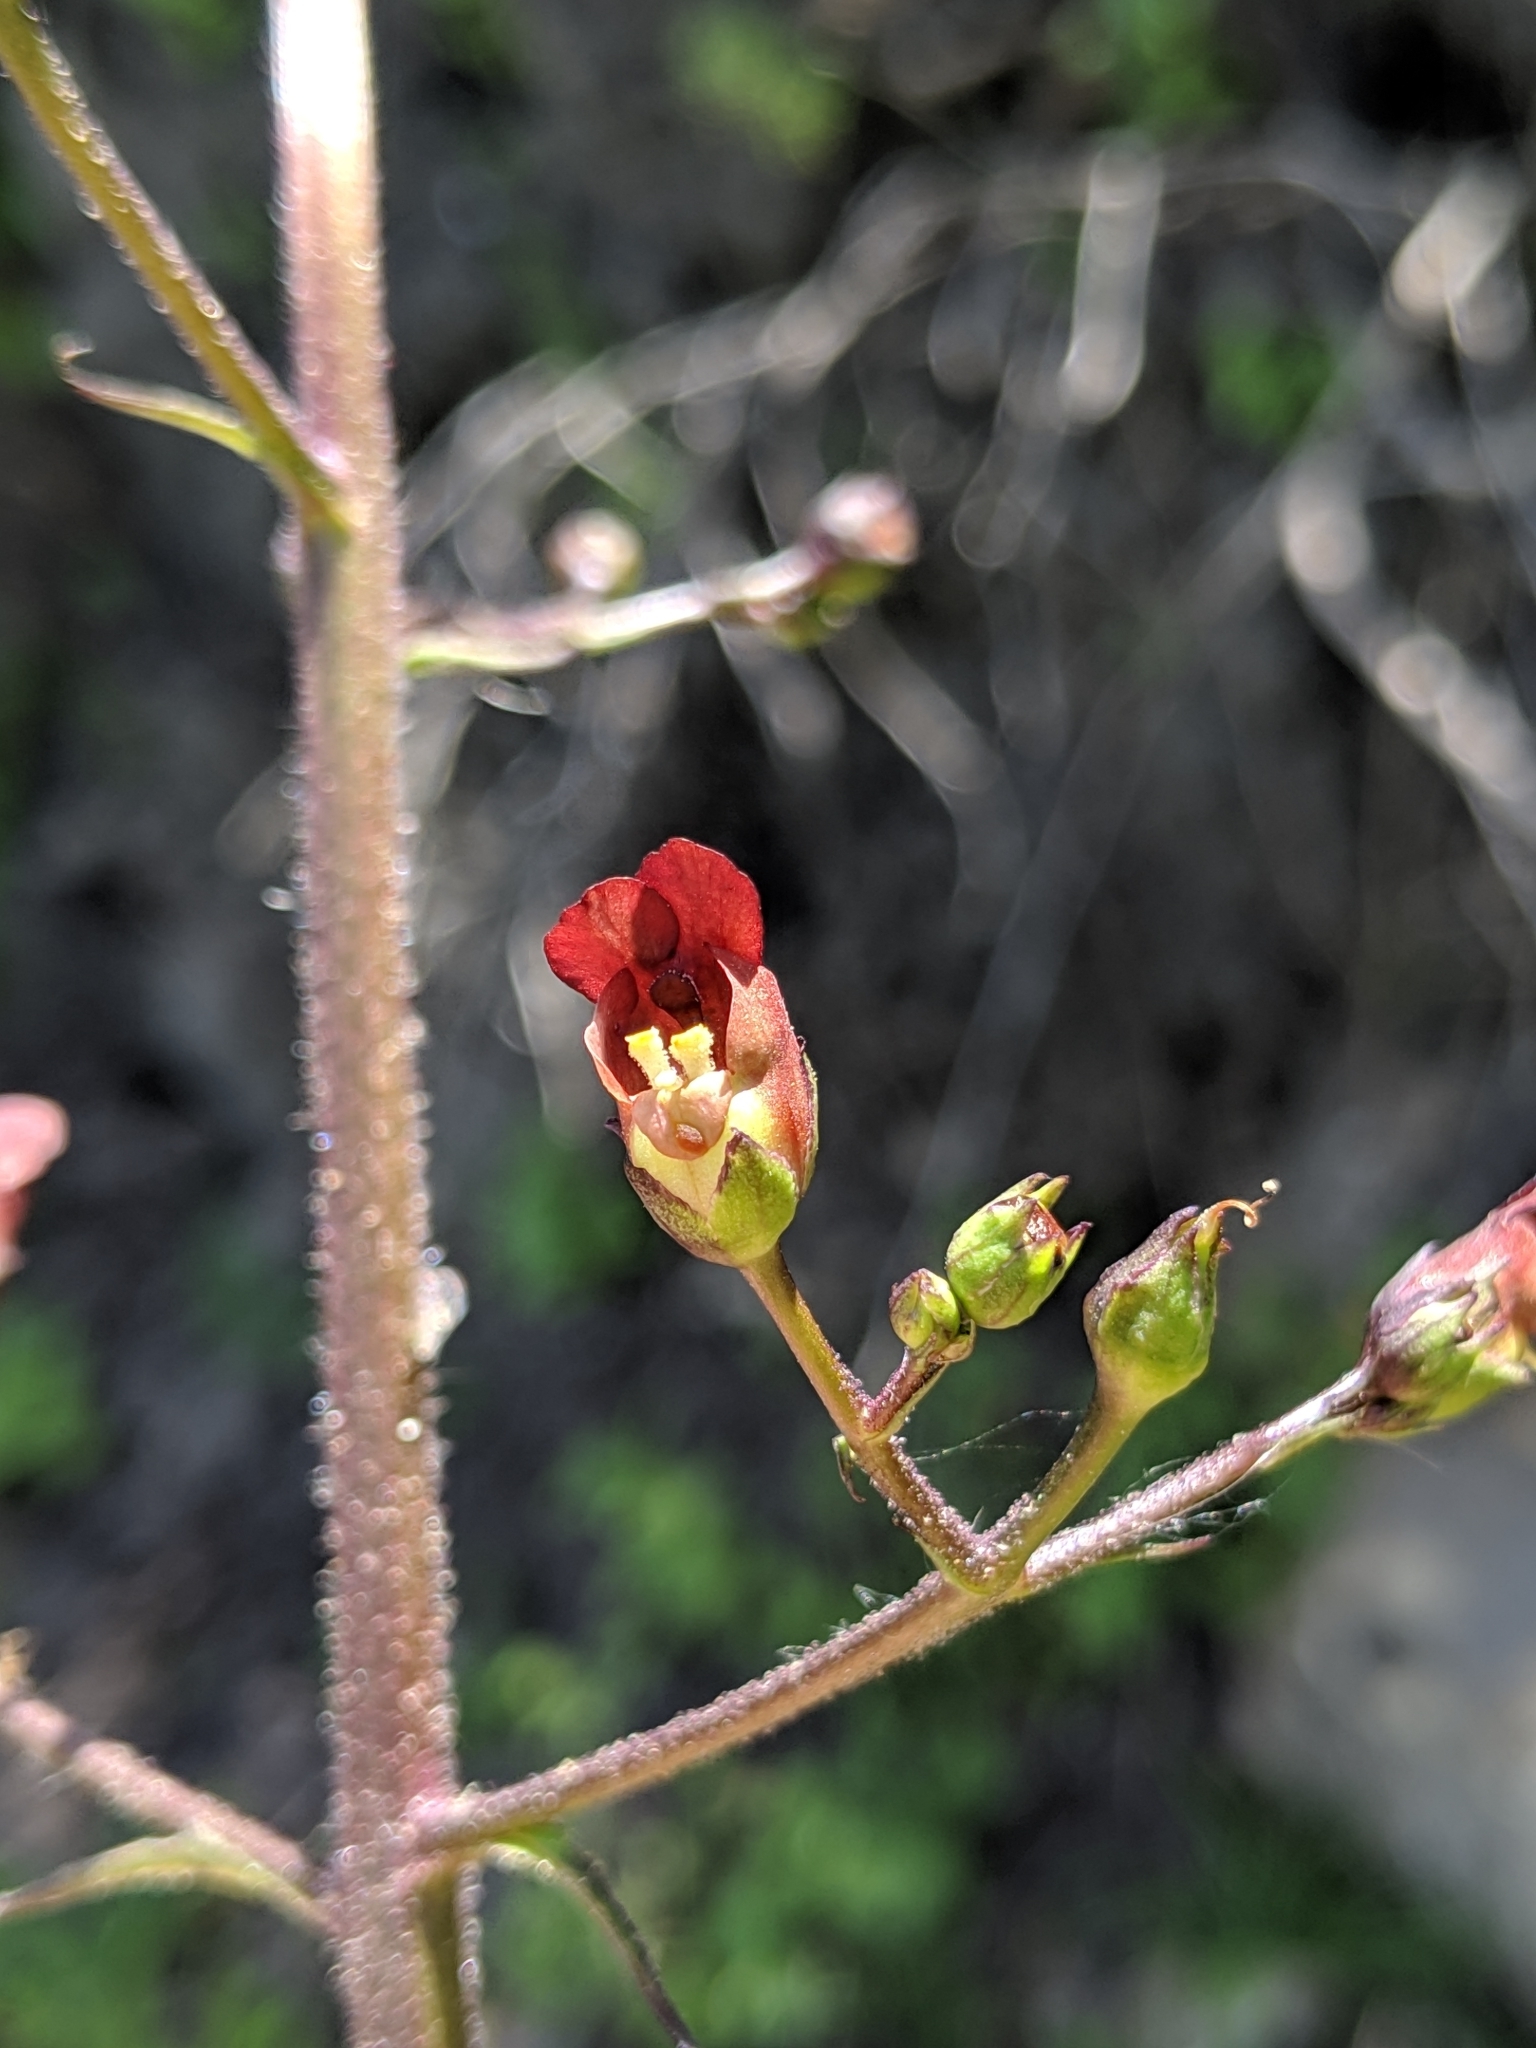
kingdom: Plantae
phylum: Tracheophyta
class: Magnoliopsida
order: Lamiales
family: Scrophulariaceae
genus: Scrophularia
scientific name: Scrophularia californica
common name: California figwort
